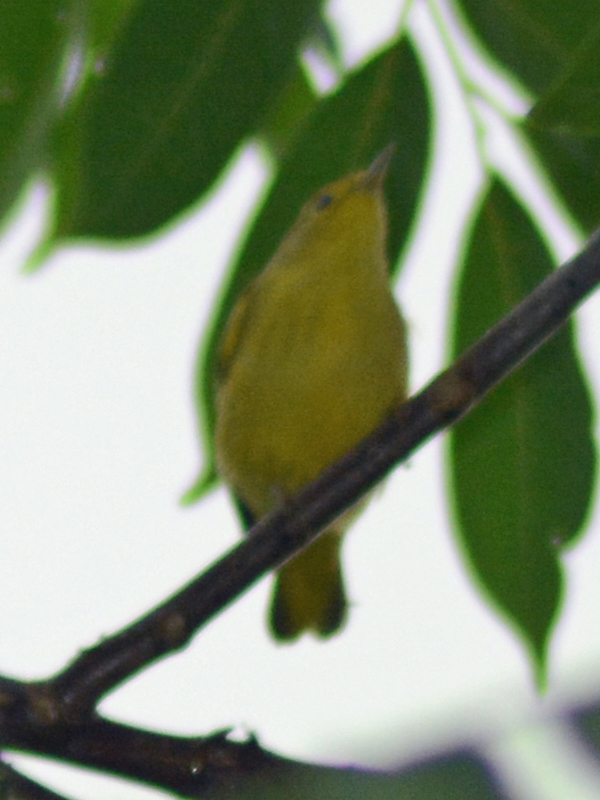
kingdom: Animalia
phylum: Chordata
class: Aves
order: Passeriformes
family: Parulidae
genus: Setophaga
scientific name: Setophaga petechia
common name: Yellow warbler
